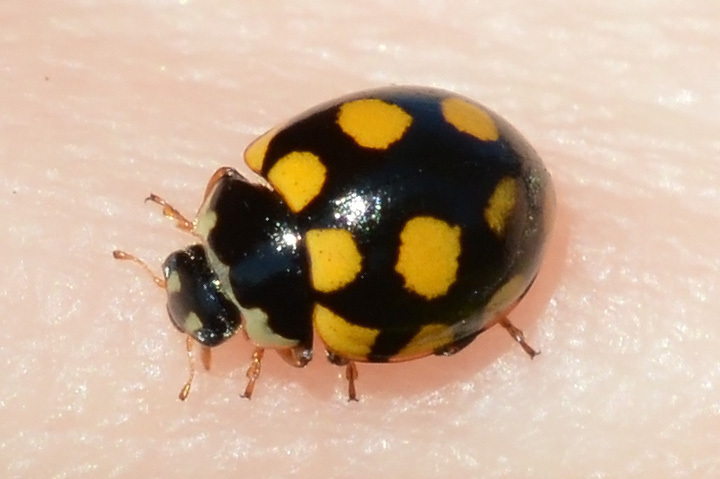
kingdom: Animalia
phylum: Arthropoda
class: Insecta
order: Coleoptera
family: Coccinellidae
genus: Coccinula
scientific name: Coccinula quatuordecimpustulata
